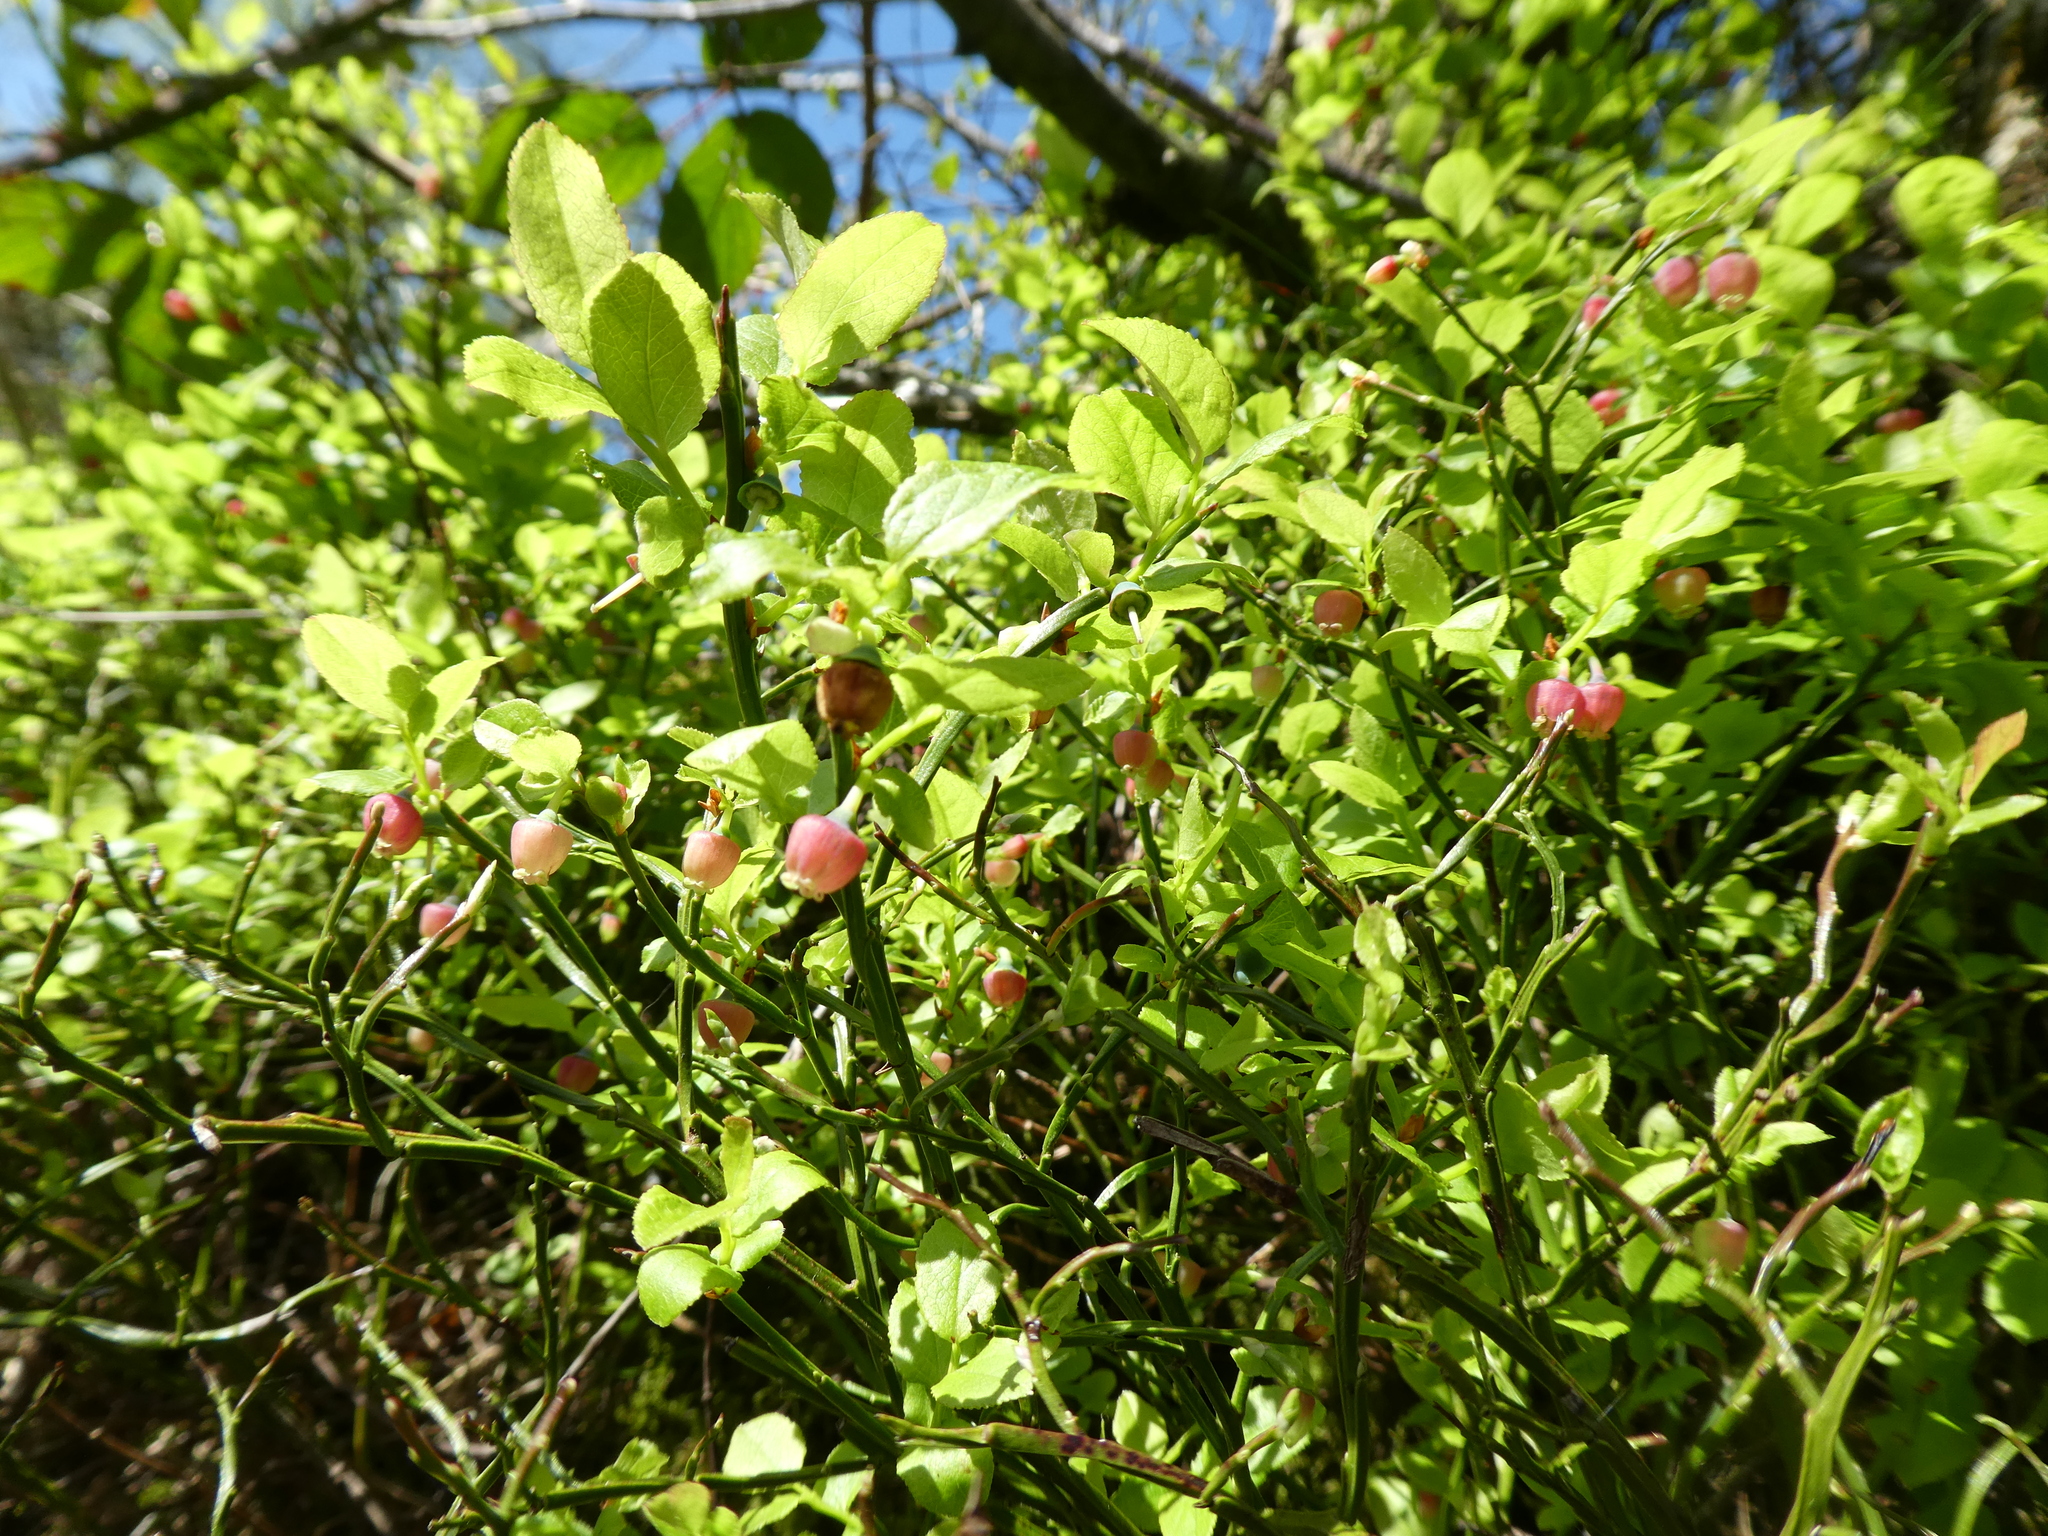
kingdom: Plantae
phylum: Tracheophyta
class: Magnoliopsida
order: Ericales
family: Ericaceae
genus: Vaccinium
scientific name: Vaccinium myrtillus
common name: Bilberry
